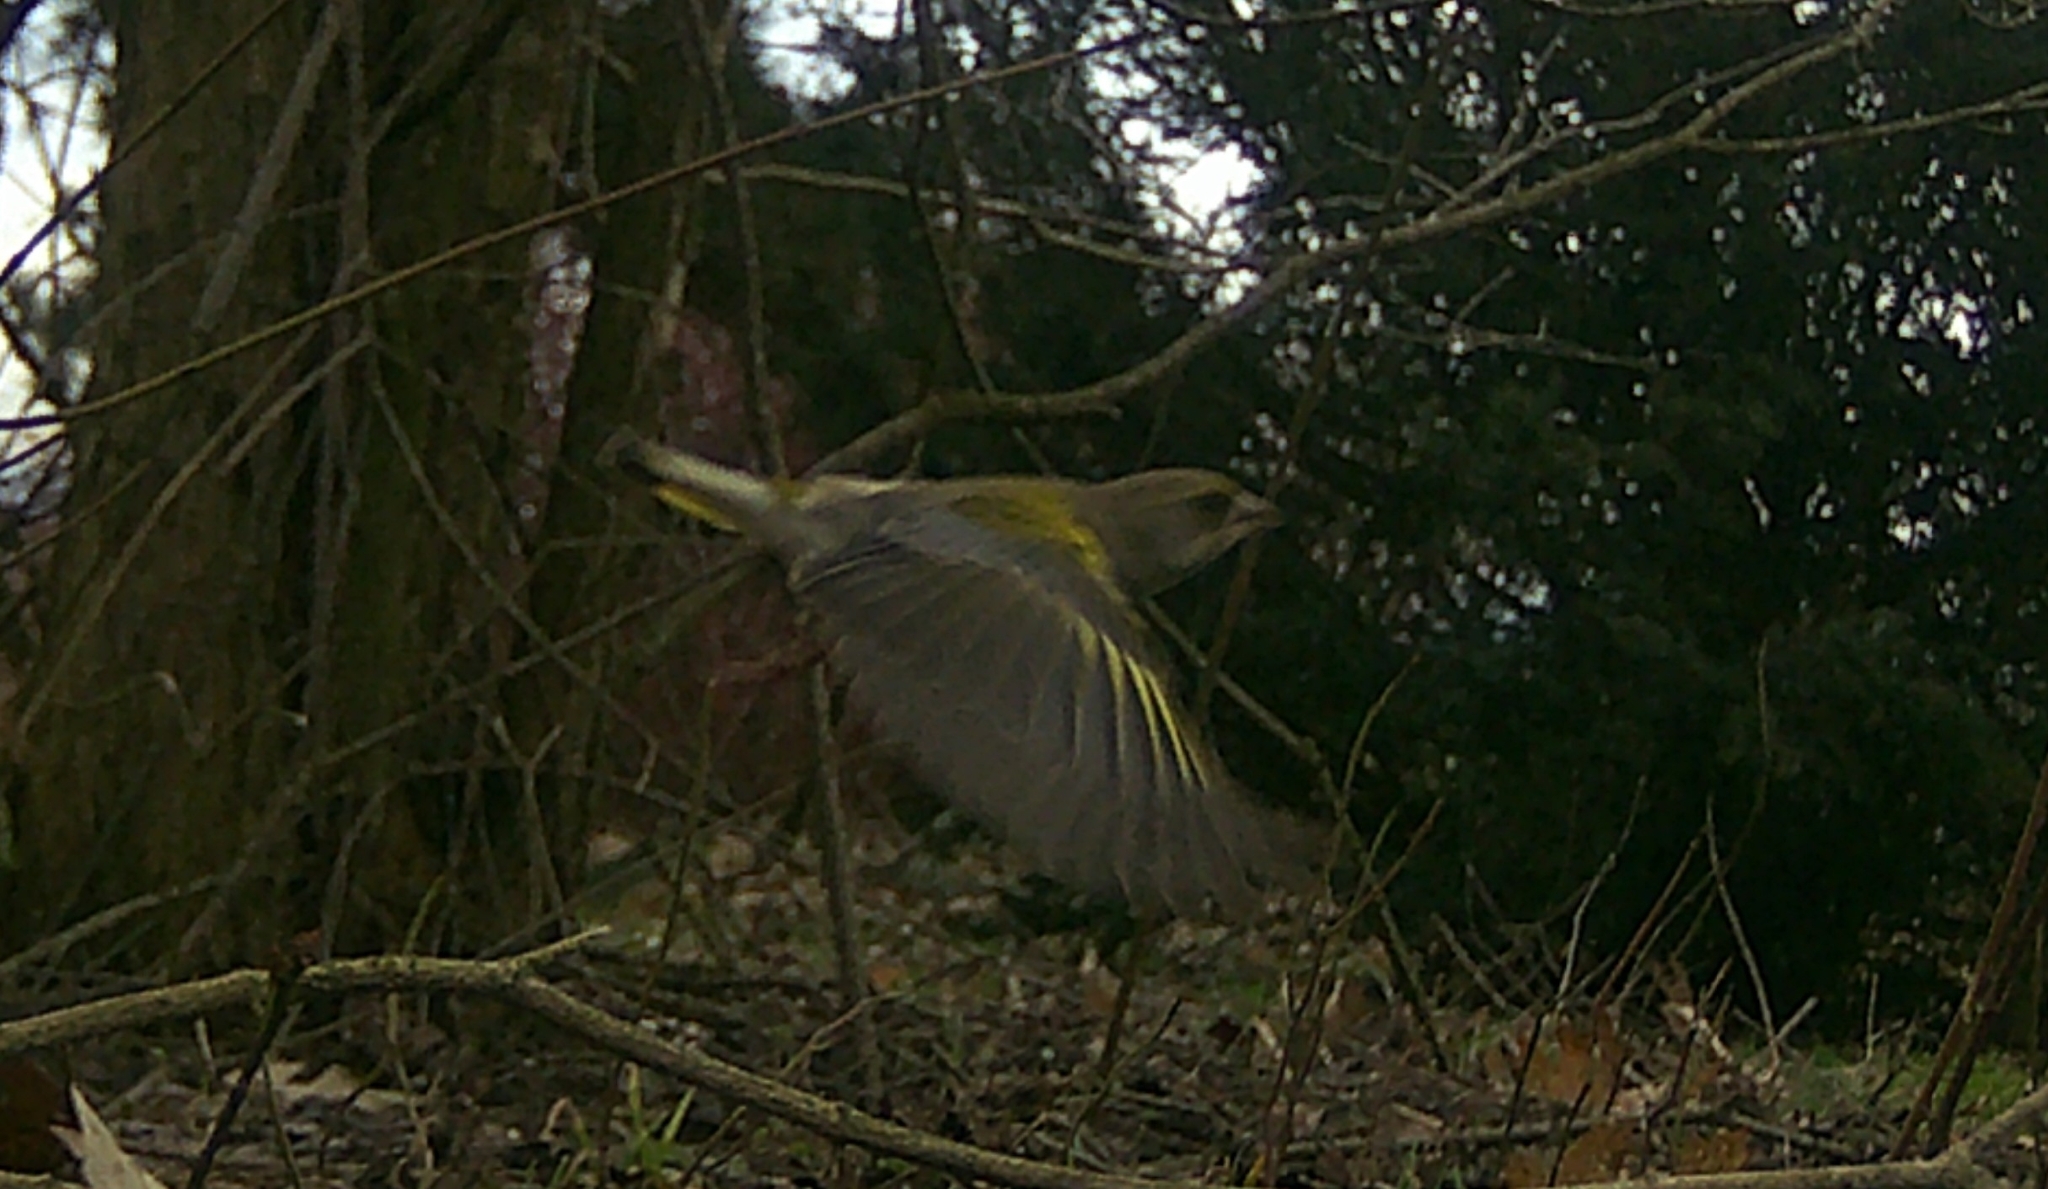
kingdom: Plantae
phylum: Tracheophyta
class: Liliopsida
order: Poales
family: Poaceae
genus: Chloris
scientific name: Chloris chloris
